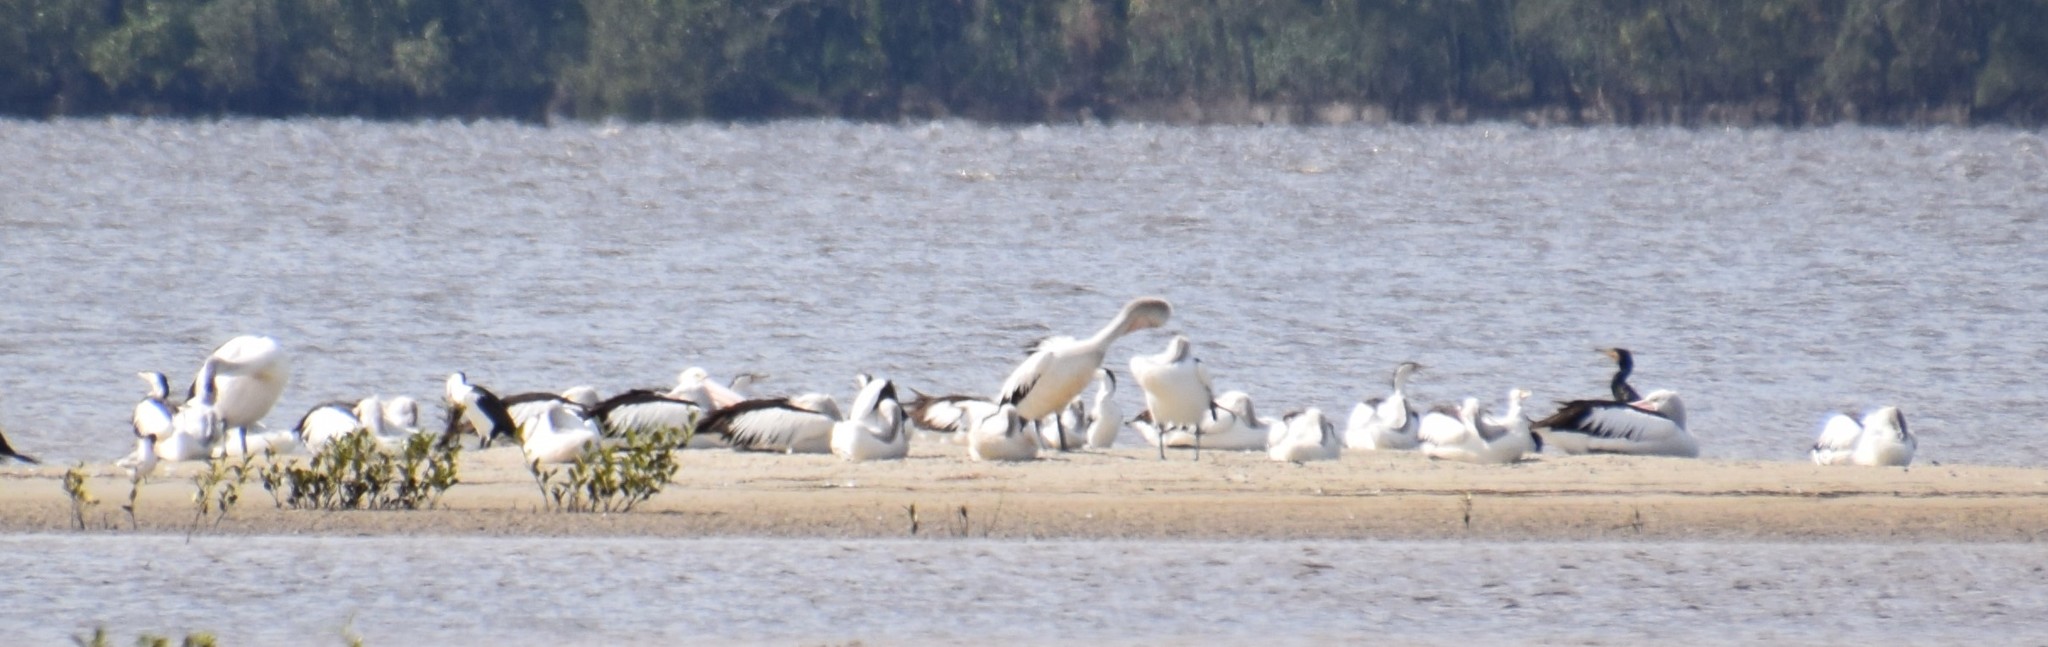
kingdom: Animalia
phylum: Chordata
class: Aves
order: Pelecaniformes
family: Pelecanidae
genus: Pelecanus
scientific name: Pelecanus conspicillatus
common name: Australian pelican
